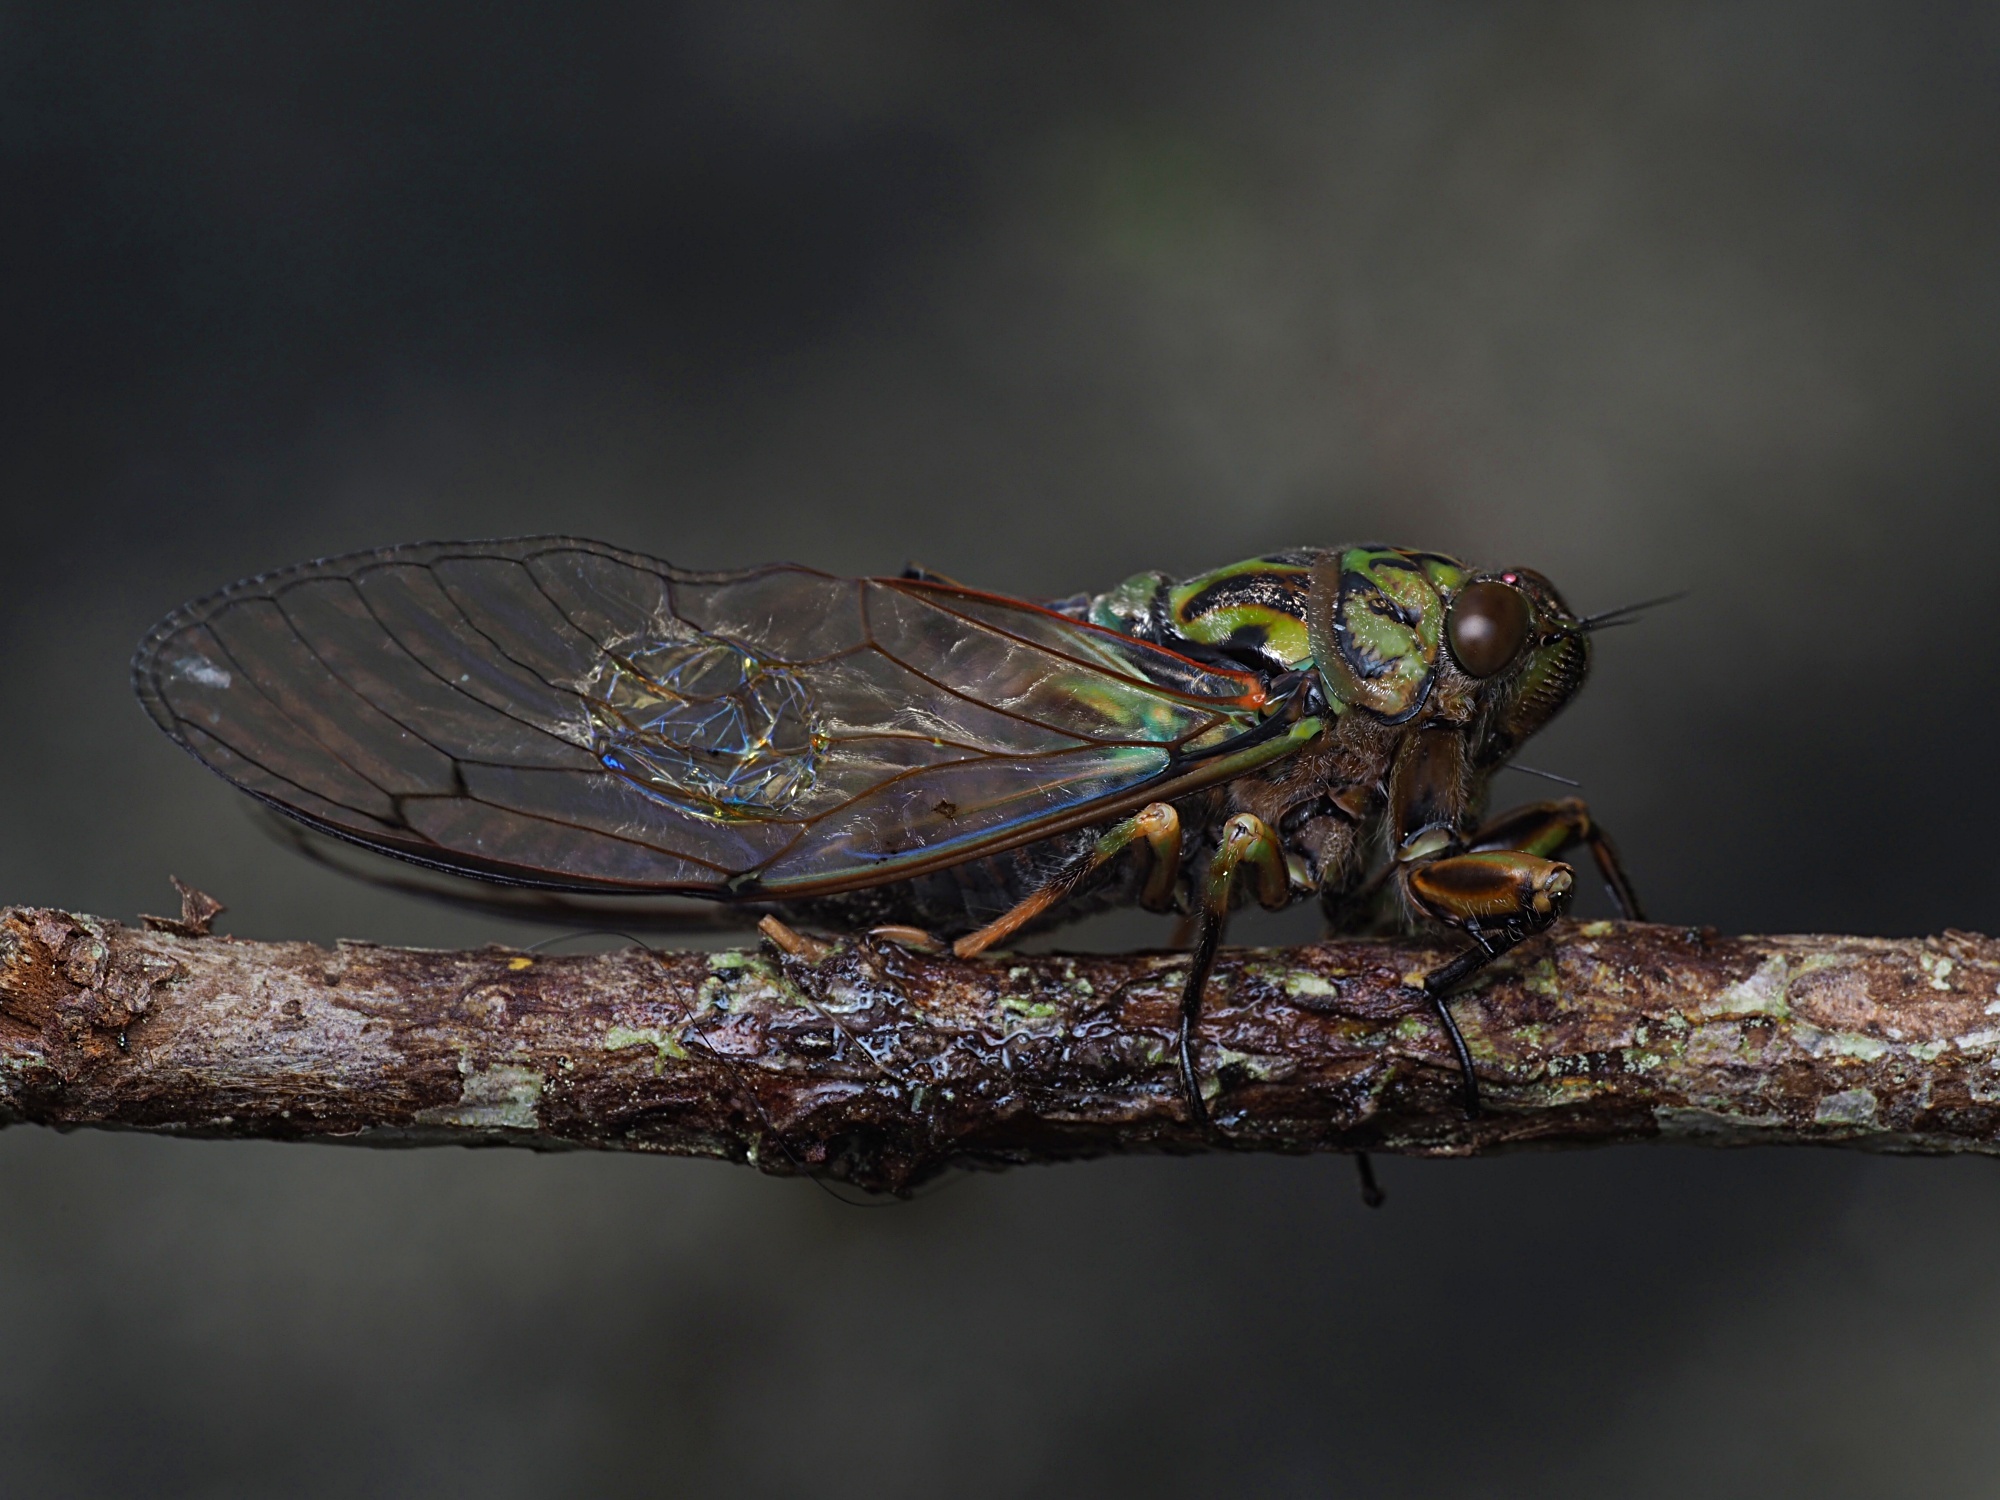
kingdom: Animalia
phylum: Arthropoda
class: Insecta
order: Hemiptera
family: Cicadidae
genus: Amphipsalta
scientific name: Amphipsalta zelandica
